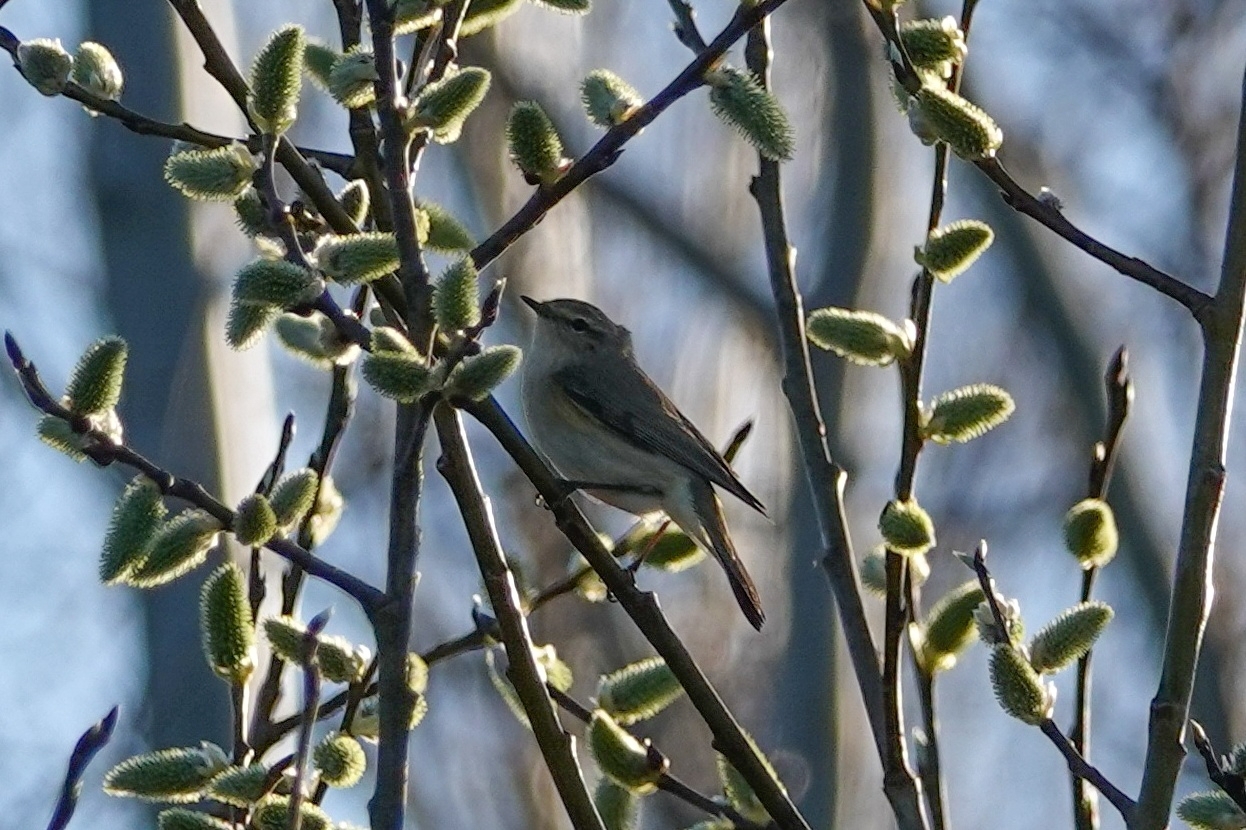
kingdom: Animalia
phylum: Chordata
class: Aves
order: Passeriformes
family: Phylloscopidae
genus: Phylloscopus
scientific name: Phylloscopus collybita
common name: Common chiffchaff
